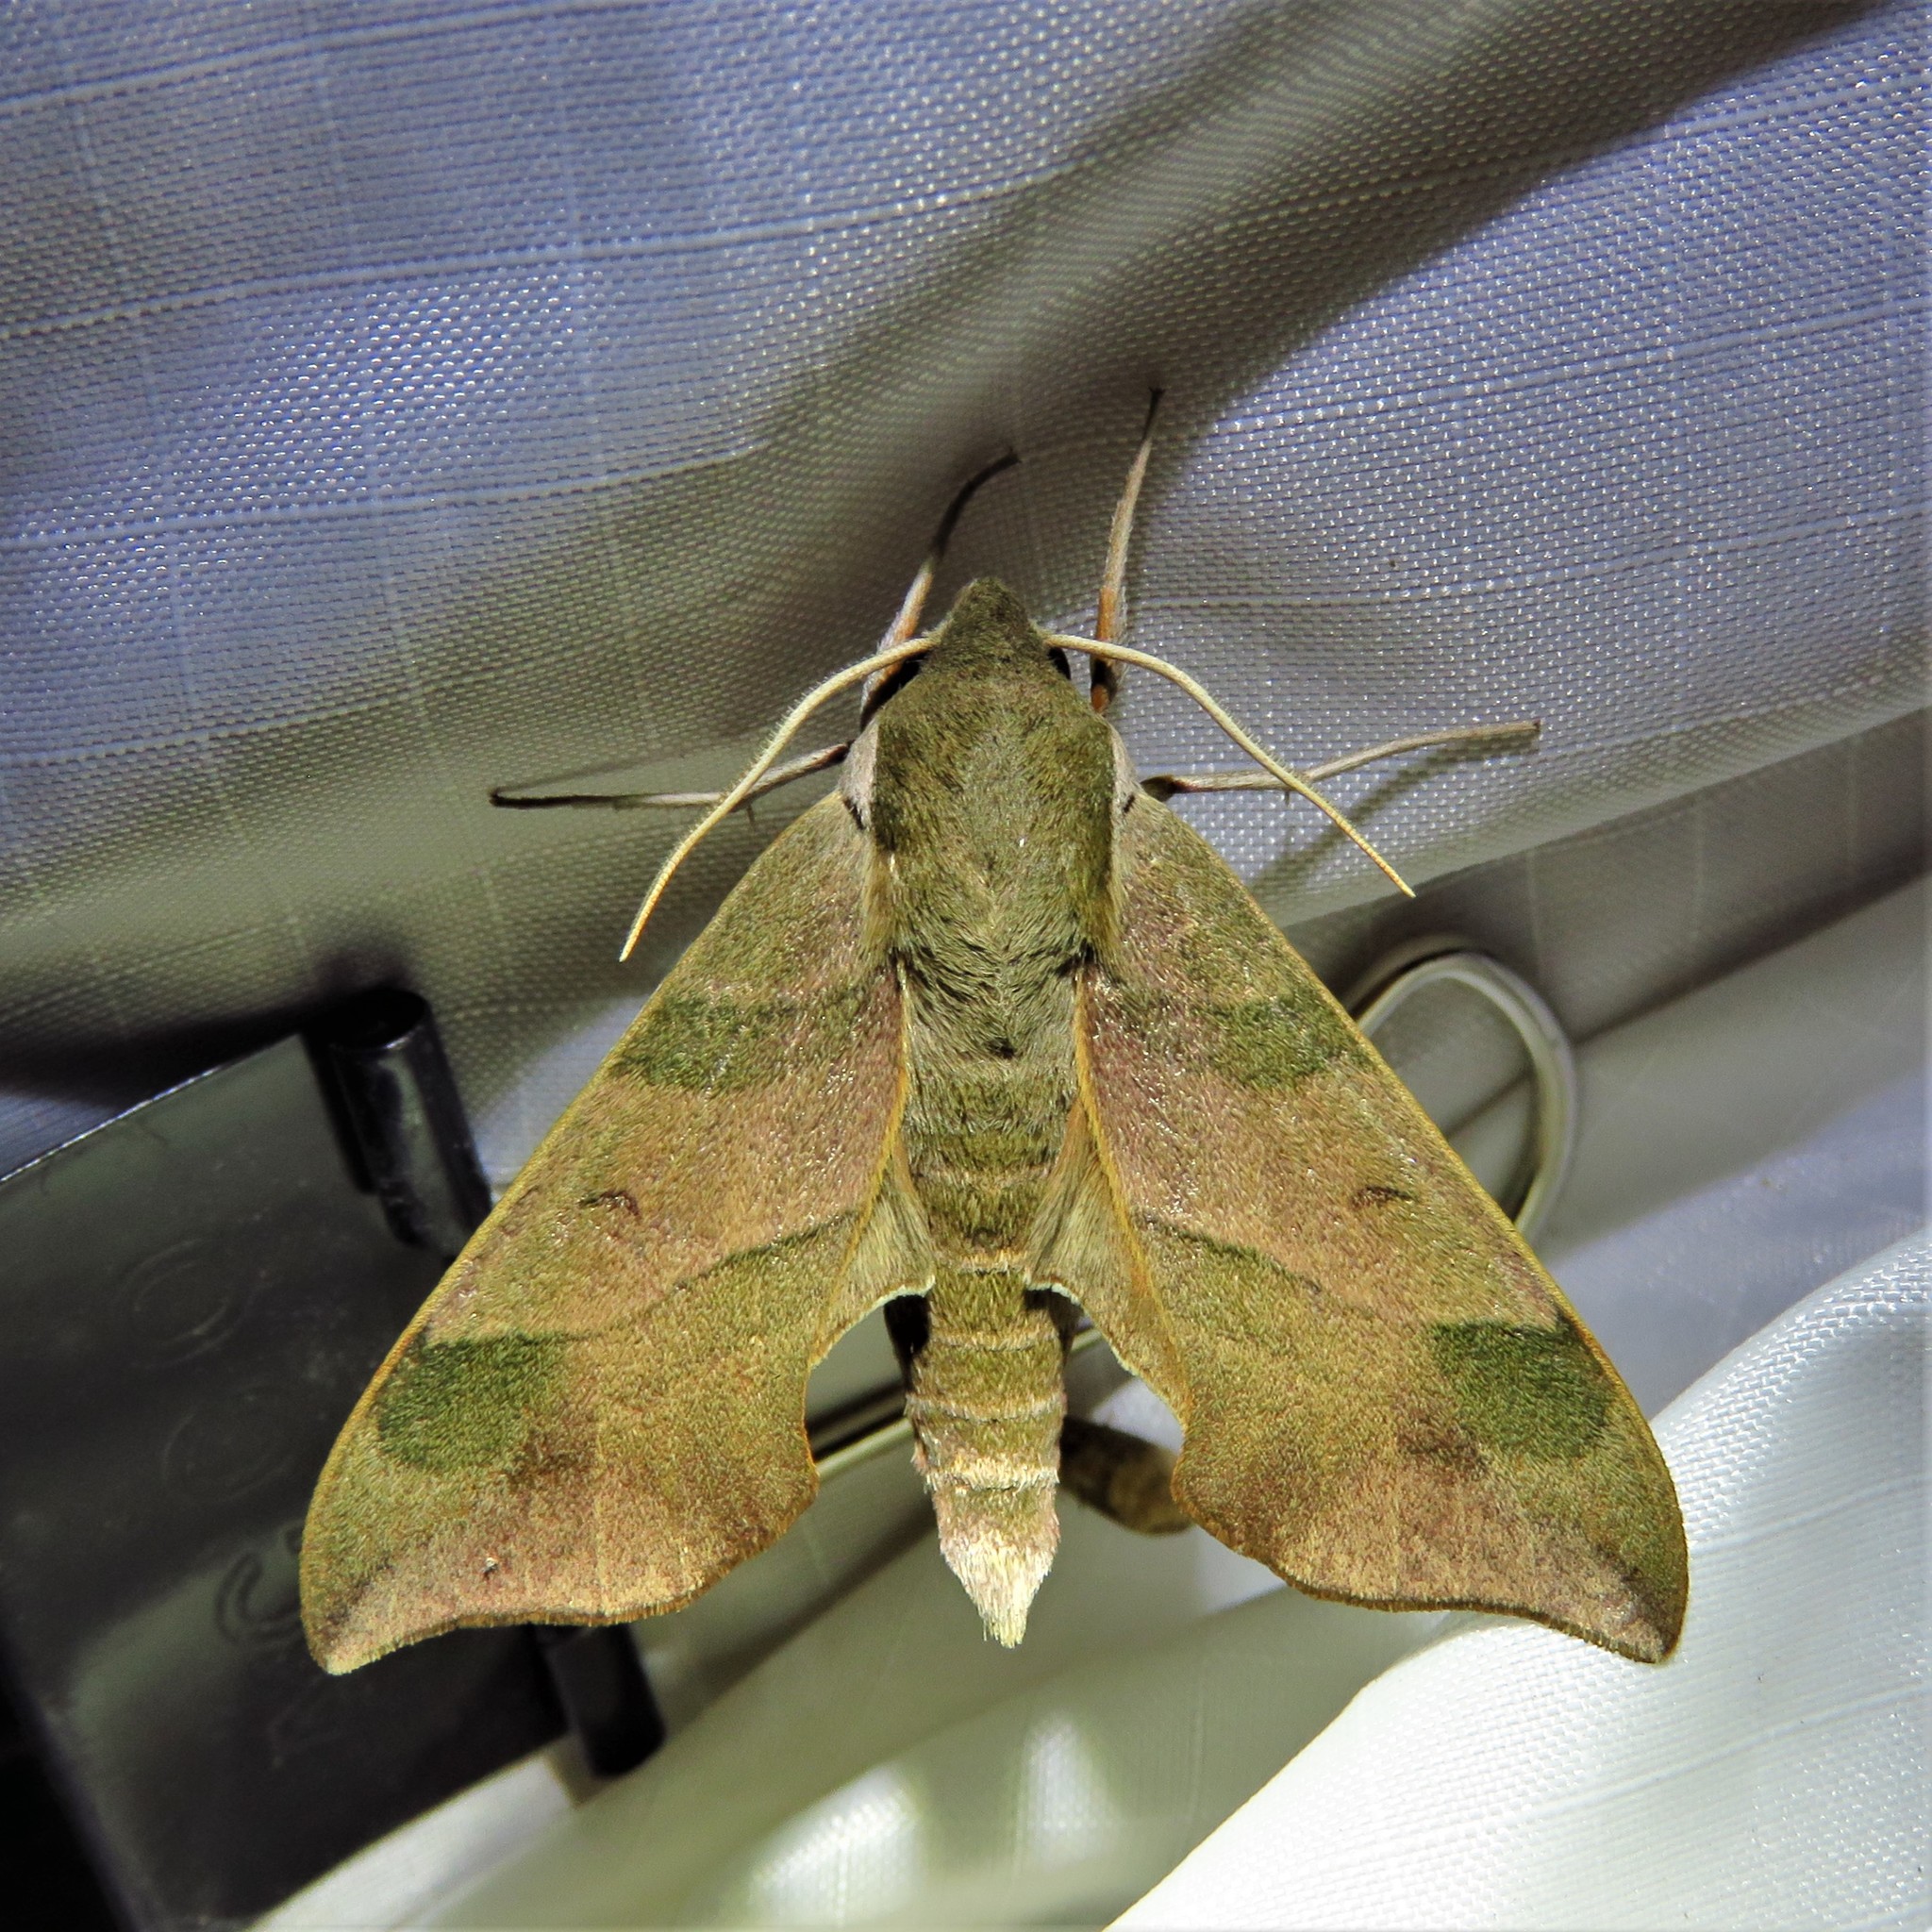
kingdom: Animalia
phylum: Arthropoda
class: Insecta
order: Lepidoptera
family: Sphingidae
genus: Darapsa
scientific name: Darapsa myron
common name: Hog sphinx
